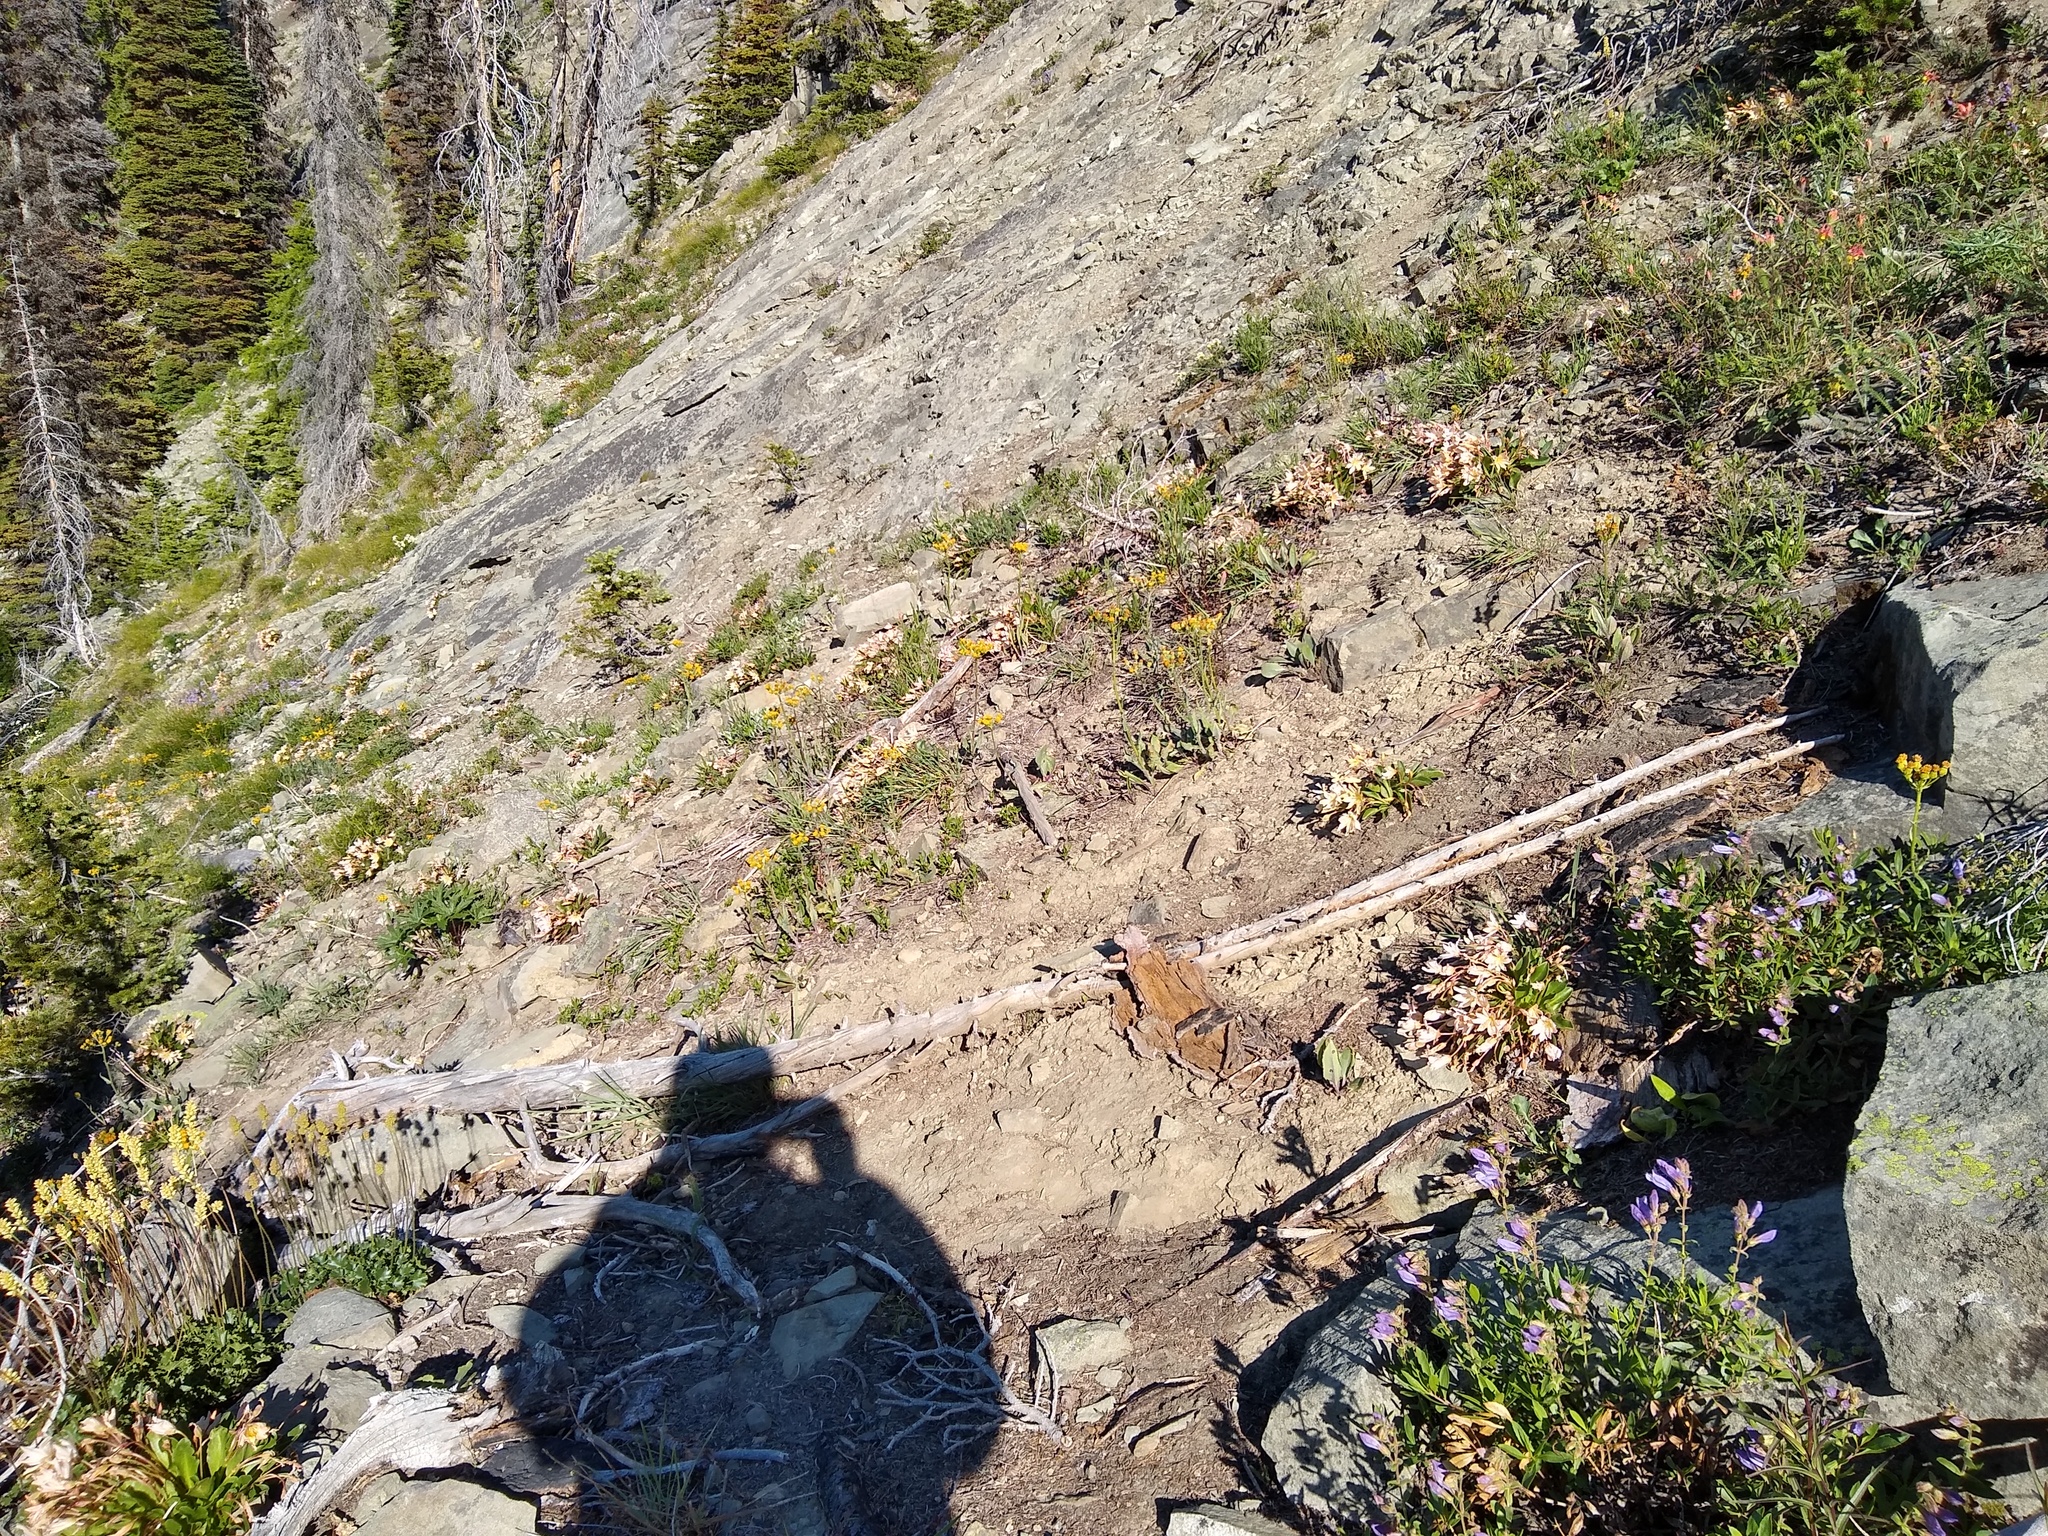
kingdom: Plantae
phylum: Tracheophyta
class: Magnoliopsida
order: Caryophyllales
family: Montiaceae
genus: Lewisiopsis
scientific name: Lewisiopsis tweedyi
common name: Tweedy's pussypaws
